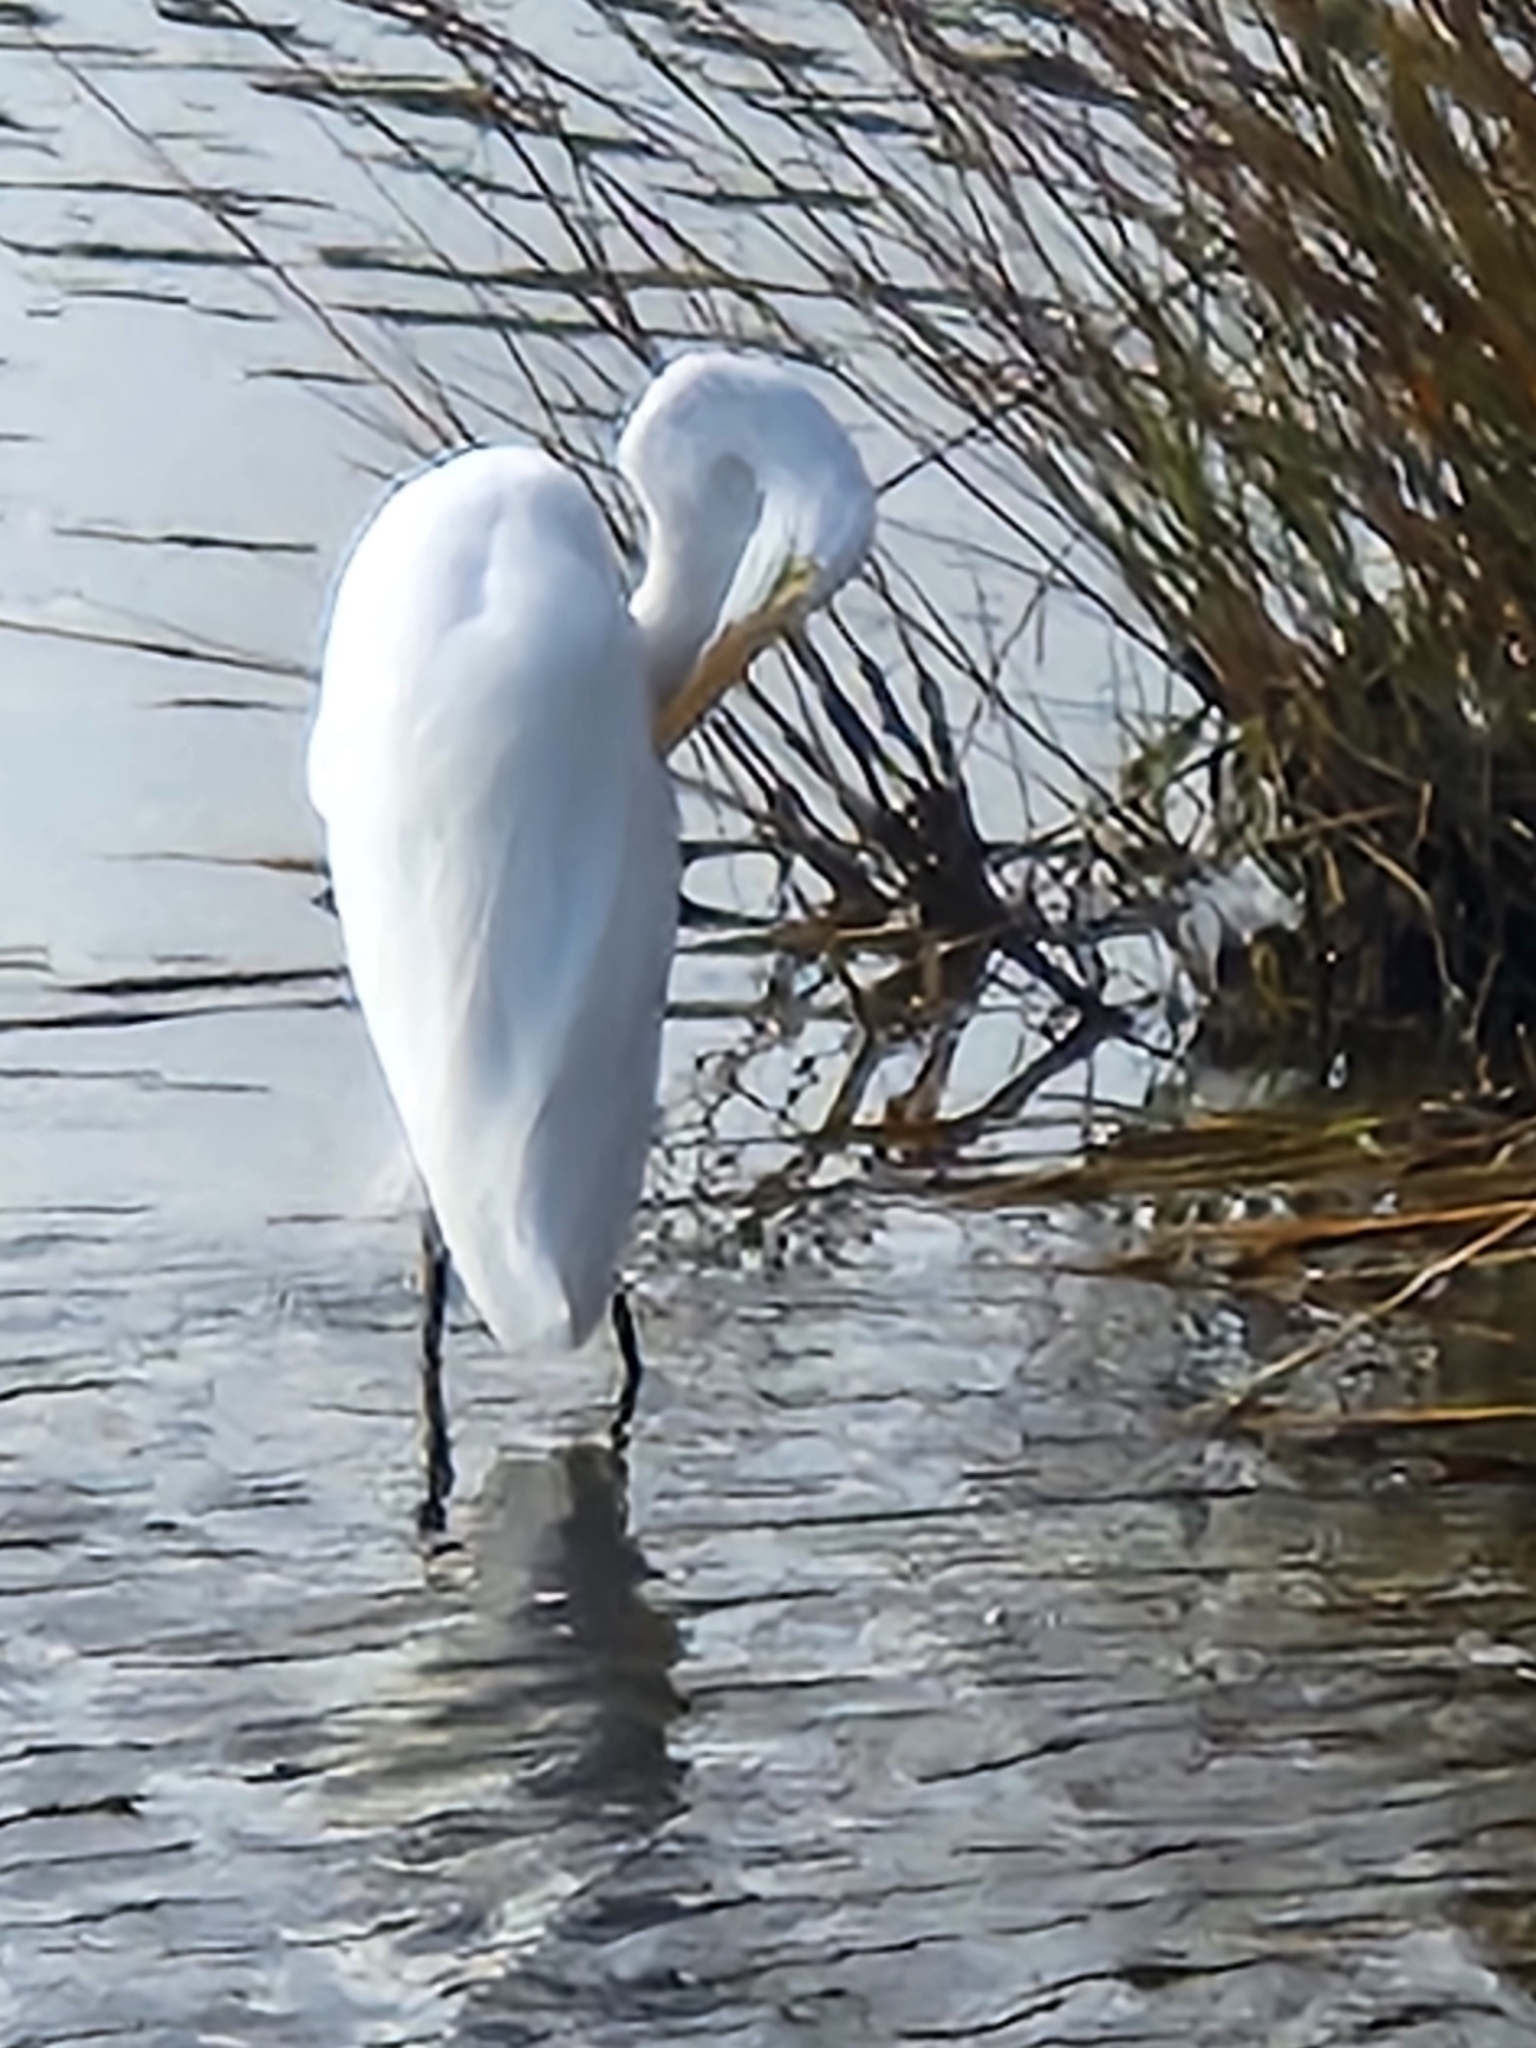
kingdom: Animalia
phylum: Chordata
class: Aves
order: Pelecaniformes
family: Ardeidae
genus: Ardea
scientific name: Ardea alba
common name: Great egret
